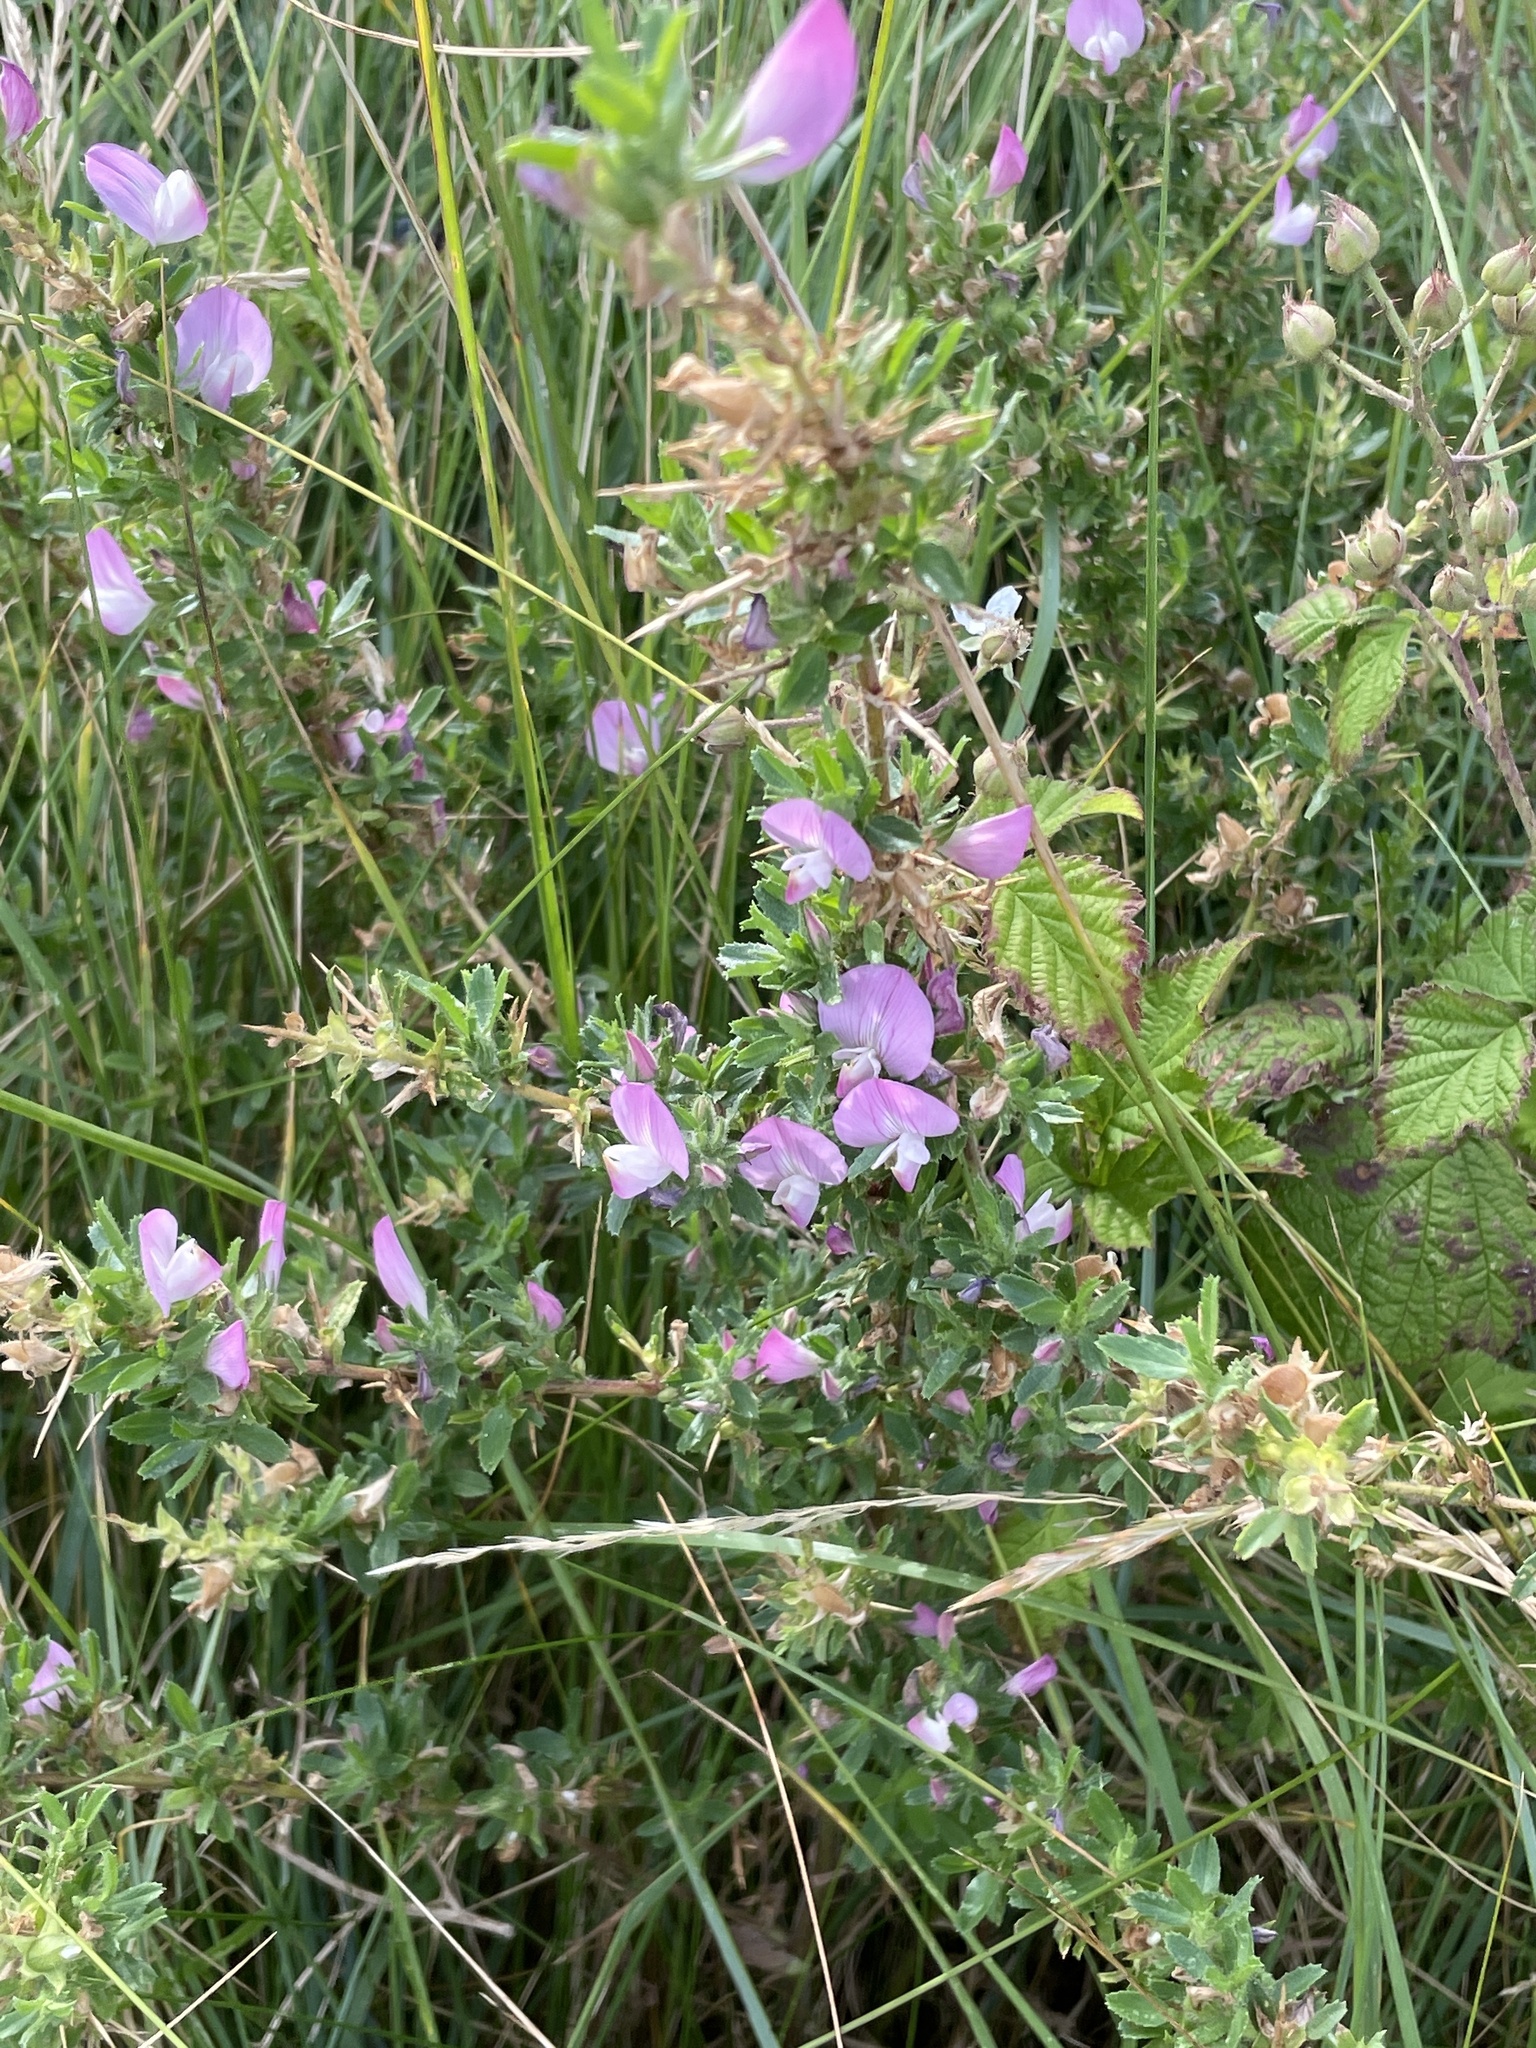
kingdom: Plantae
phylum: Tracheophyta
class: Magnoliopsida
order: Fabales
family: Fabaceae
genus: Ononis
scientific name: Ononis spinosa
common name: Spiny restharrow
